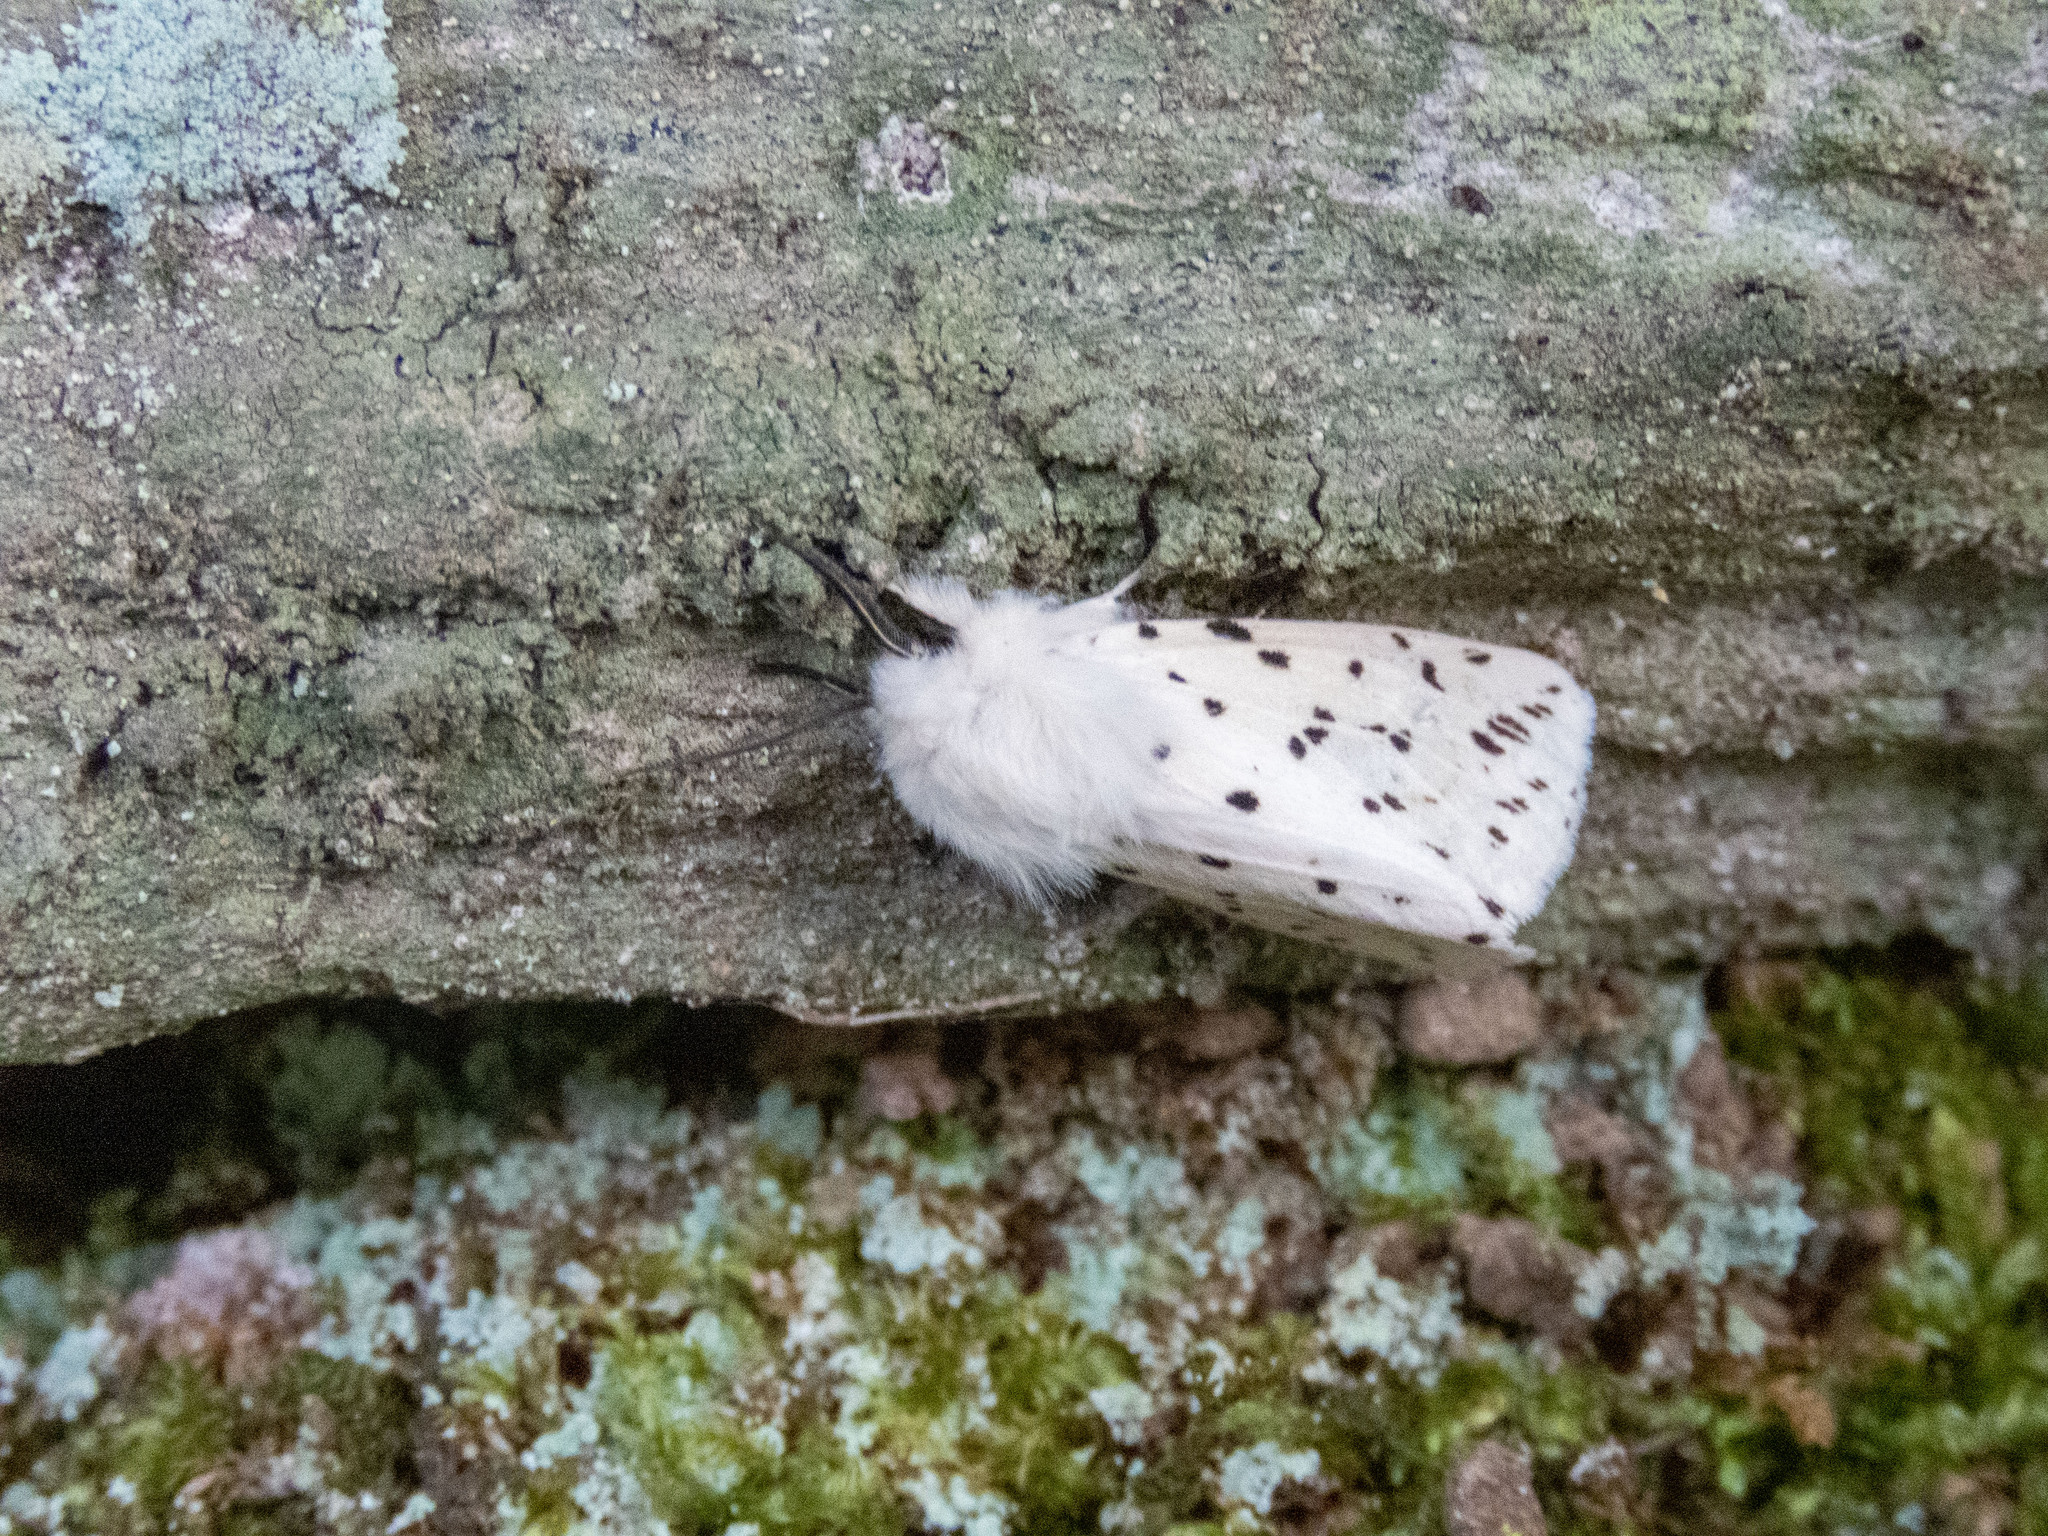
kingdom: Animalia
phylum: Arthropoda
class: Insecta
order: Lepidoptera
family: Erebidae
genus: Spilosoma
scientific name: Spilosoma lubricipeda
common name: White ermine
